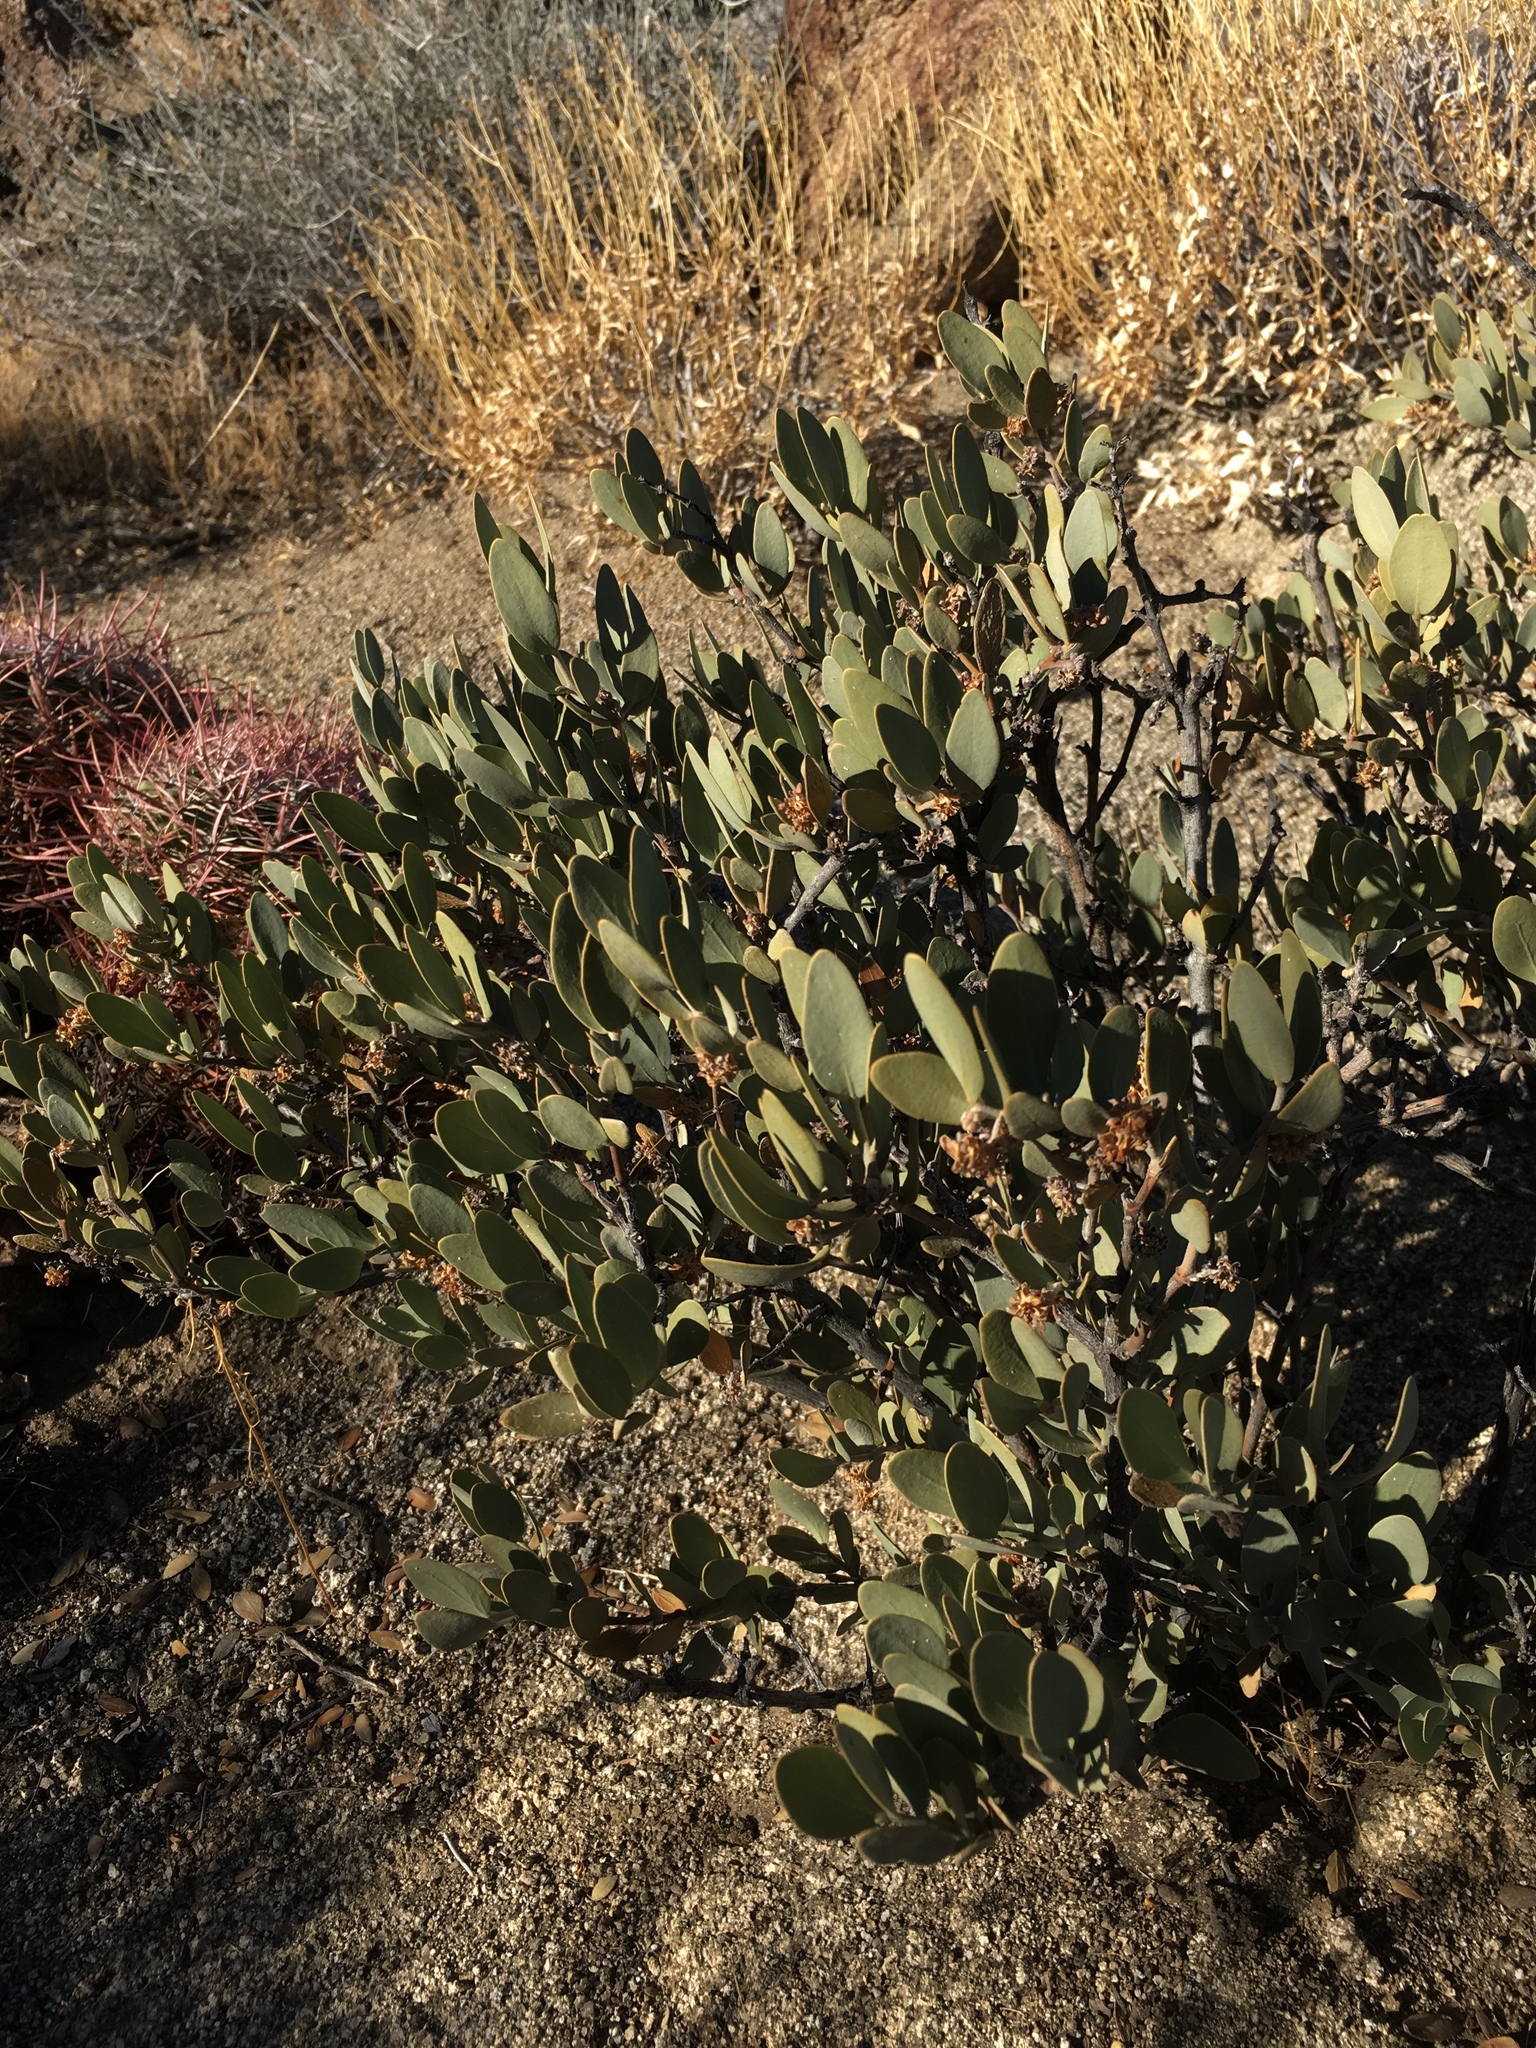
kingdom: Plantae
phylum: Tracheophyta
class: Magnoliopsida
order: Caryophyllales
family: Simmondsiaceae
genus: Simmondsia
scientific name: Simmondsia chinensis
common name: Jojoba
